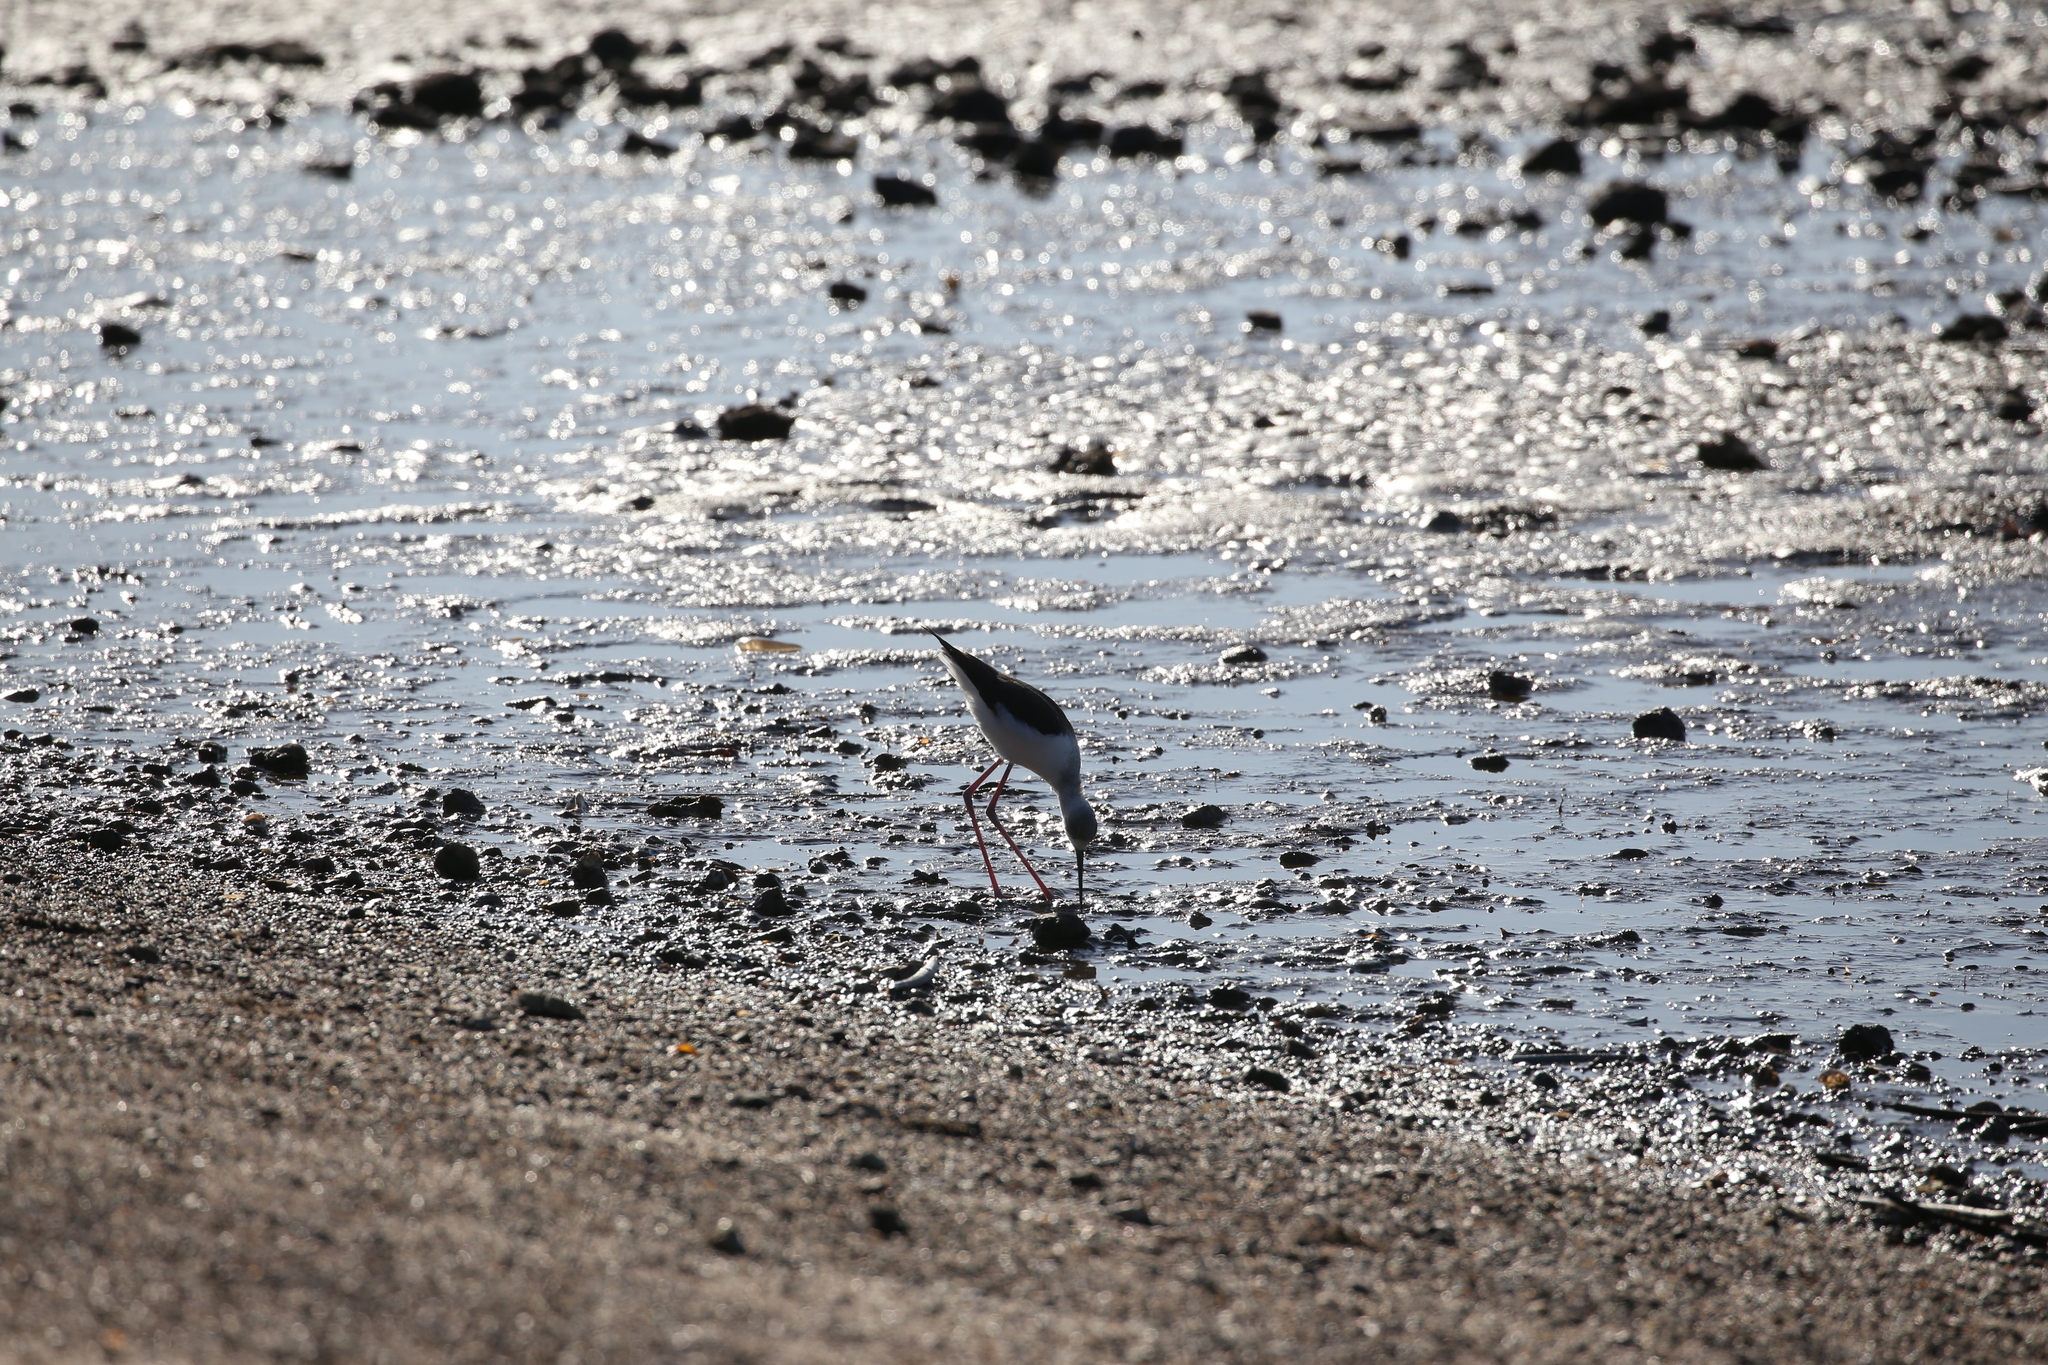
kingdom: Animalia
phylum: Chordata
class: Aves
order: Charadriiformes
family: Recurvirostridae
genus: Himantopus
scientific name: Himantopus leucocephalus
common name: White-headed stilt
